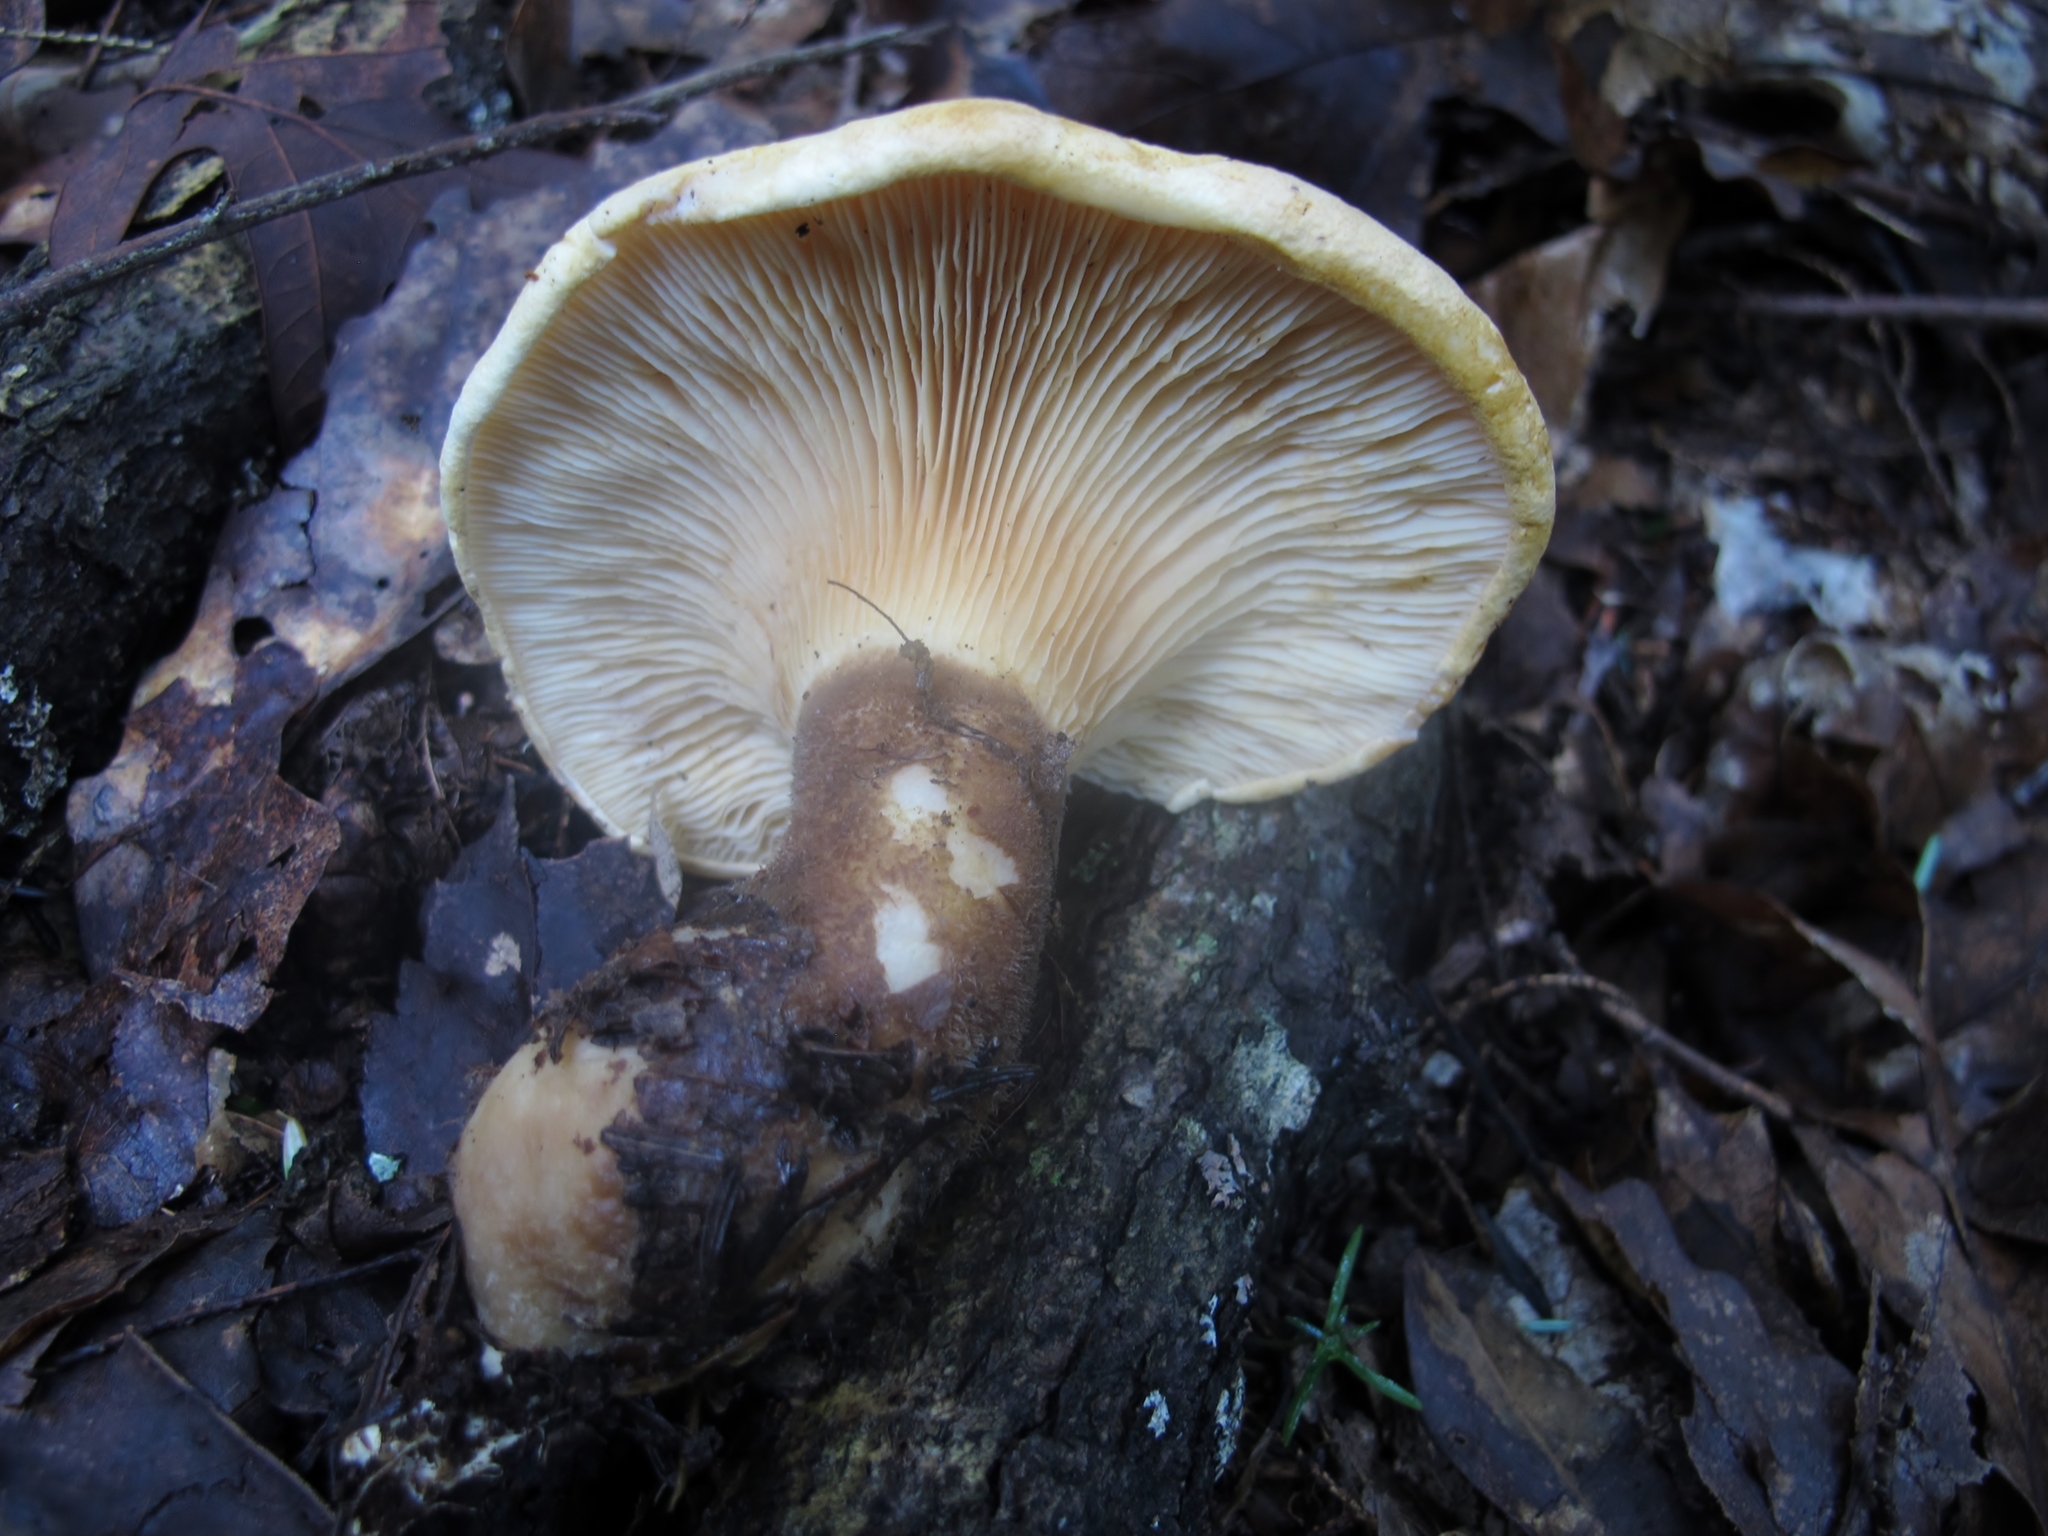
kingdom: Fungi
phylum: Basidiomycota
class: Agaricomycetes
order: Boletales
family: Tapinellaceae
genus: Tapinella
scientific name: Tapinella atrotomentosa
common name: Velvet rollrim
